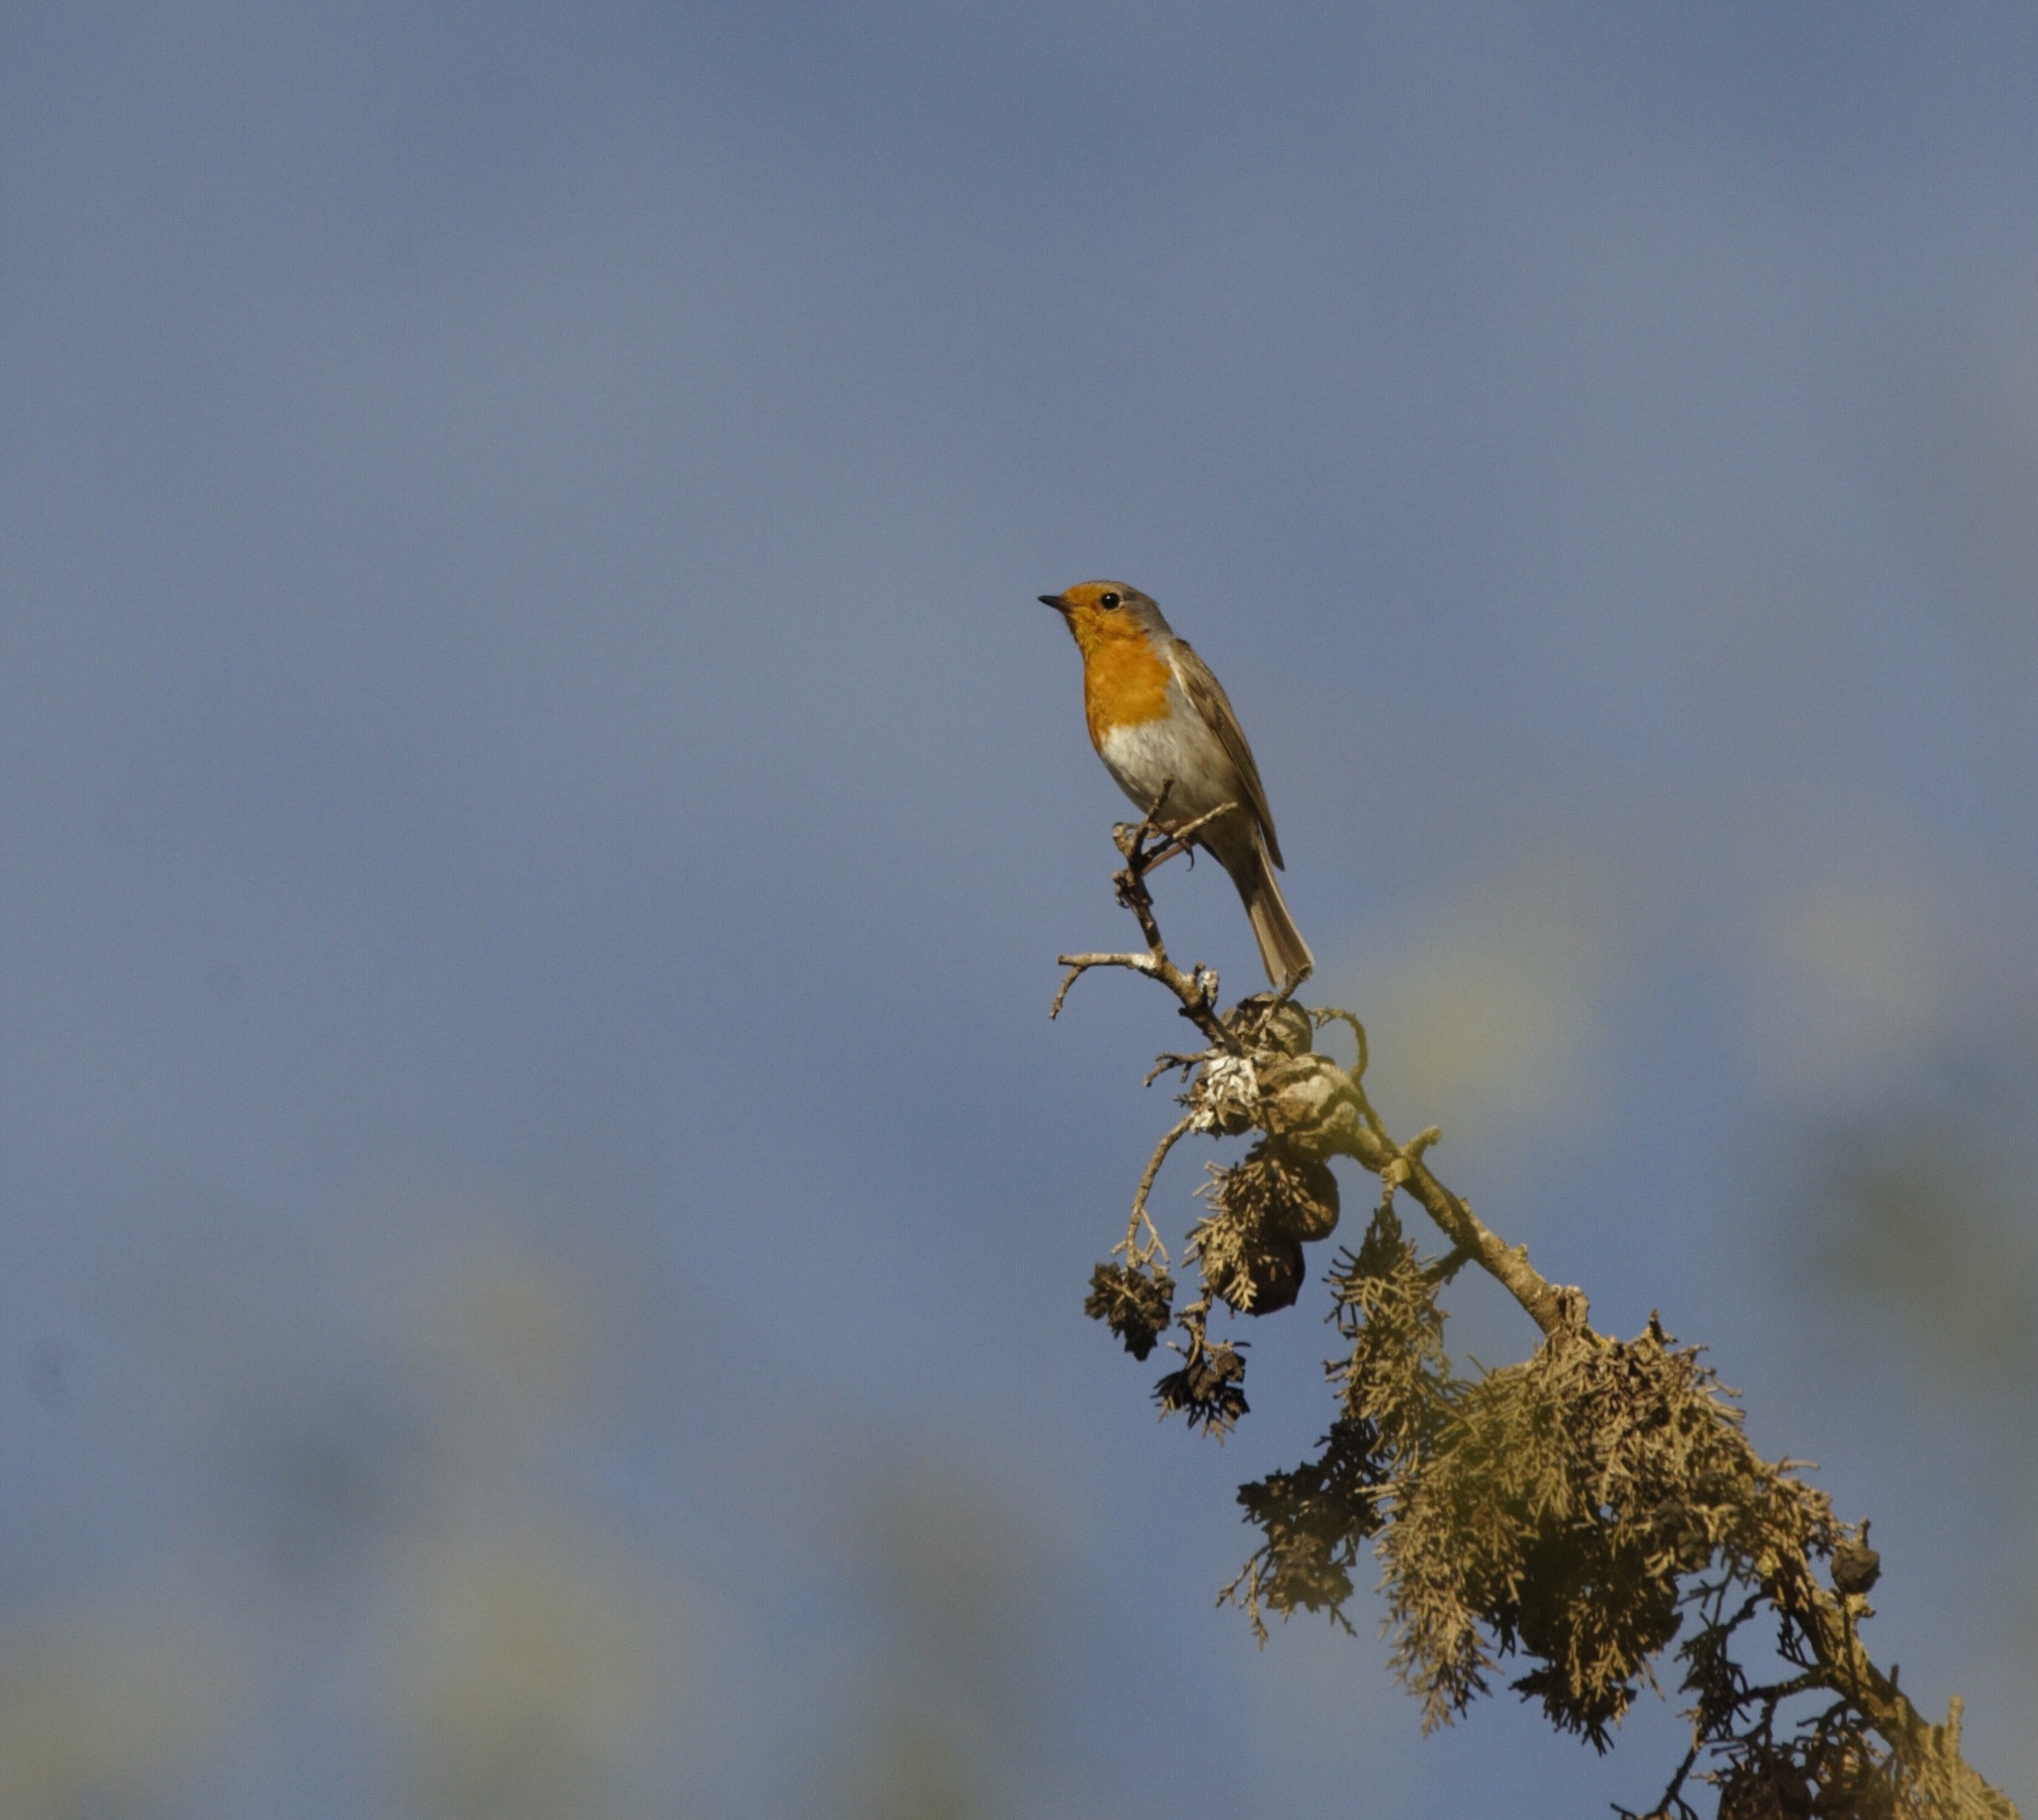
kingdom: Animalia
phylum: Chordata
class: Aves
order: Passeriformes
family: Muscicapidae
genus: Erithacus
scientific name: Erithacus rubecula
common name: European robin
